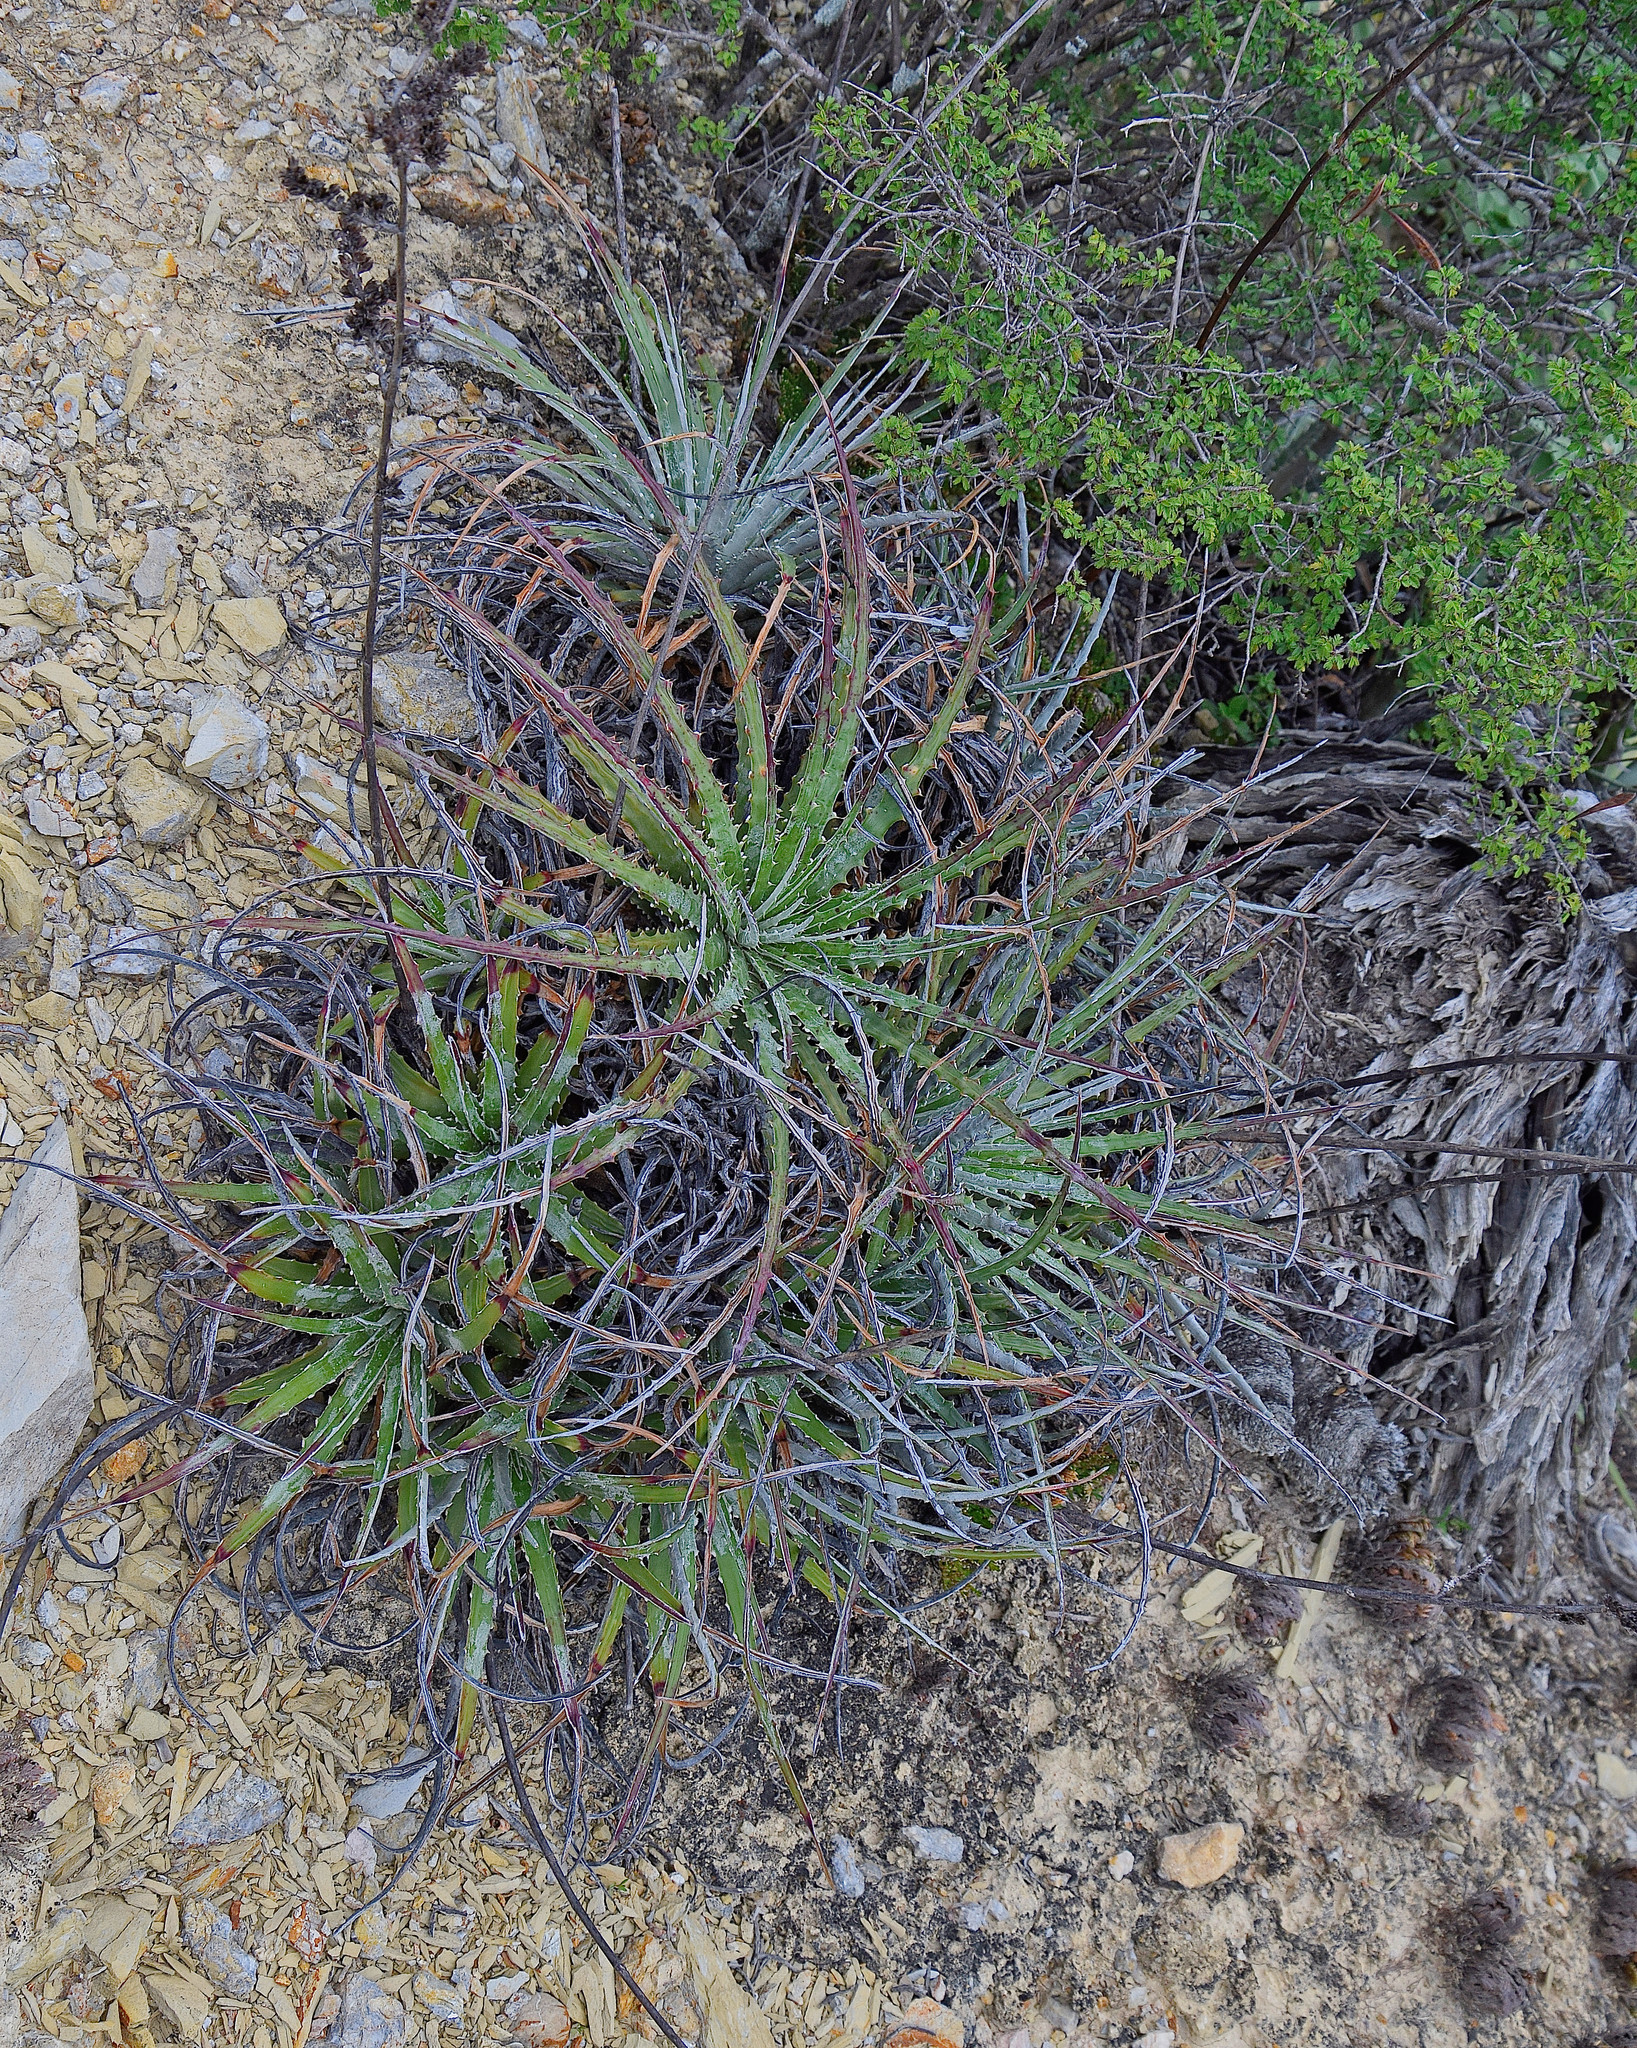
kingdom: Plantae
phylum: Tracheophyta
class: Liliopsida
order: Poales
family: Bromeliaceae
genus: Hechtia
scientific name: Hechtia glomerata
